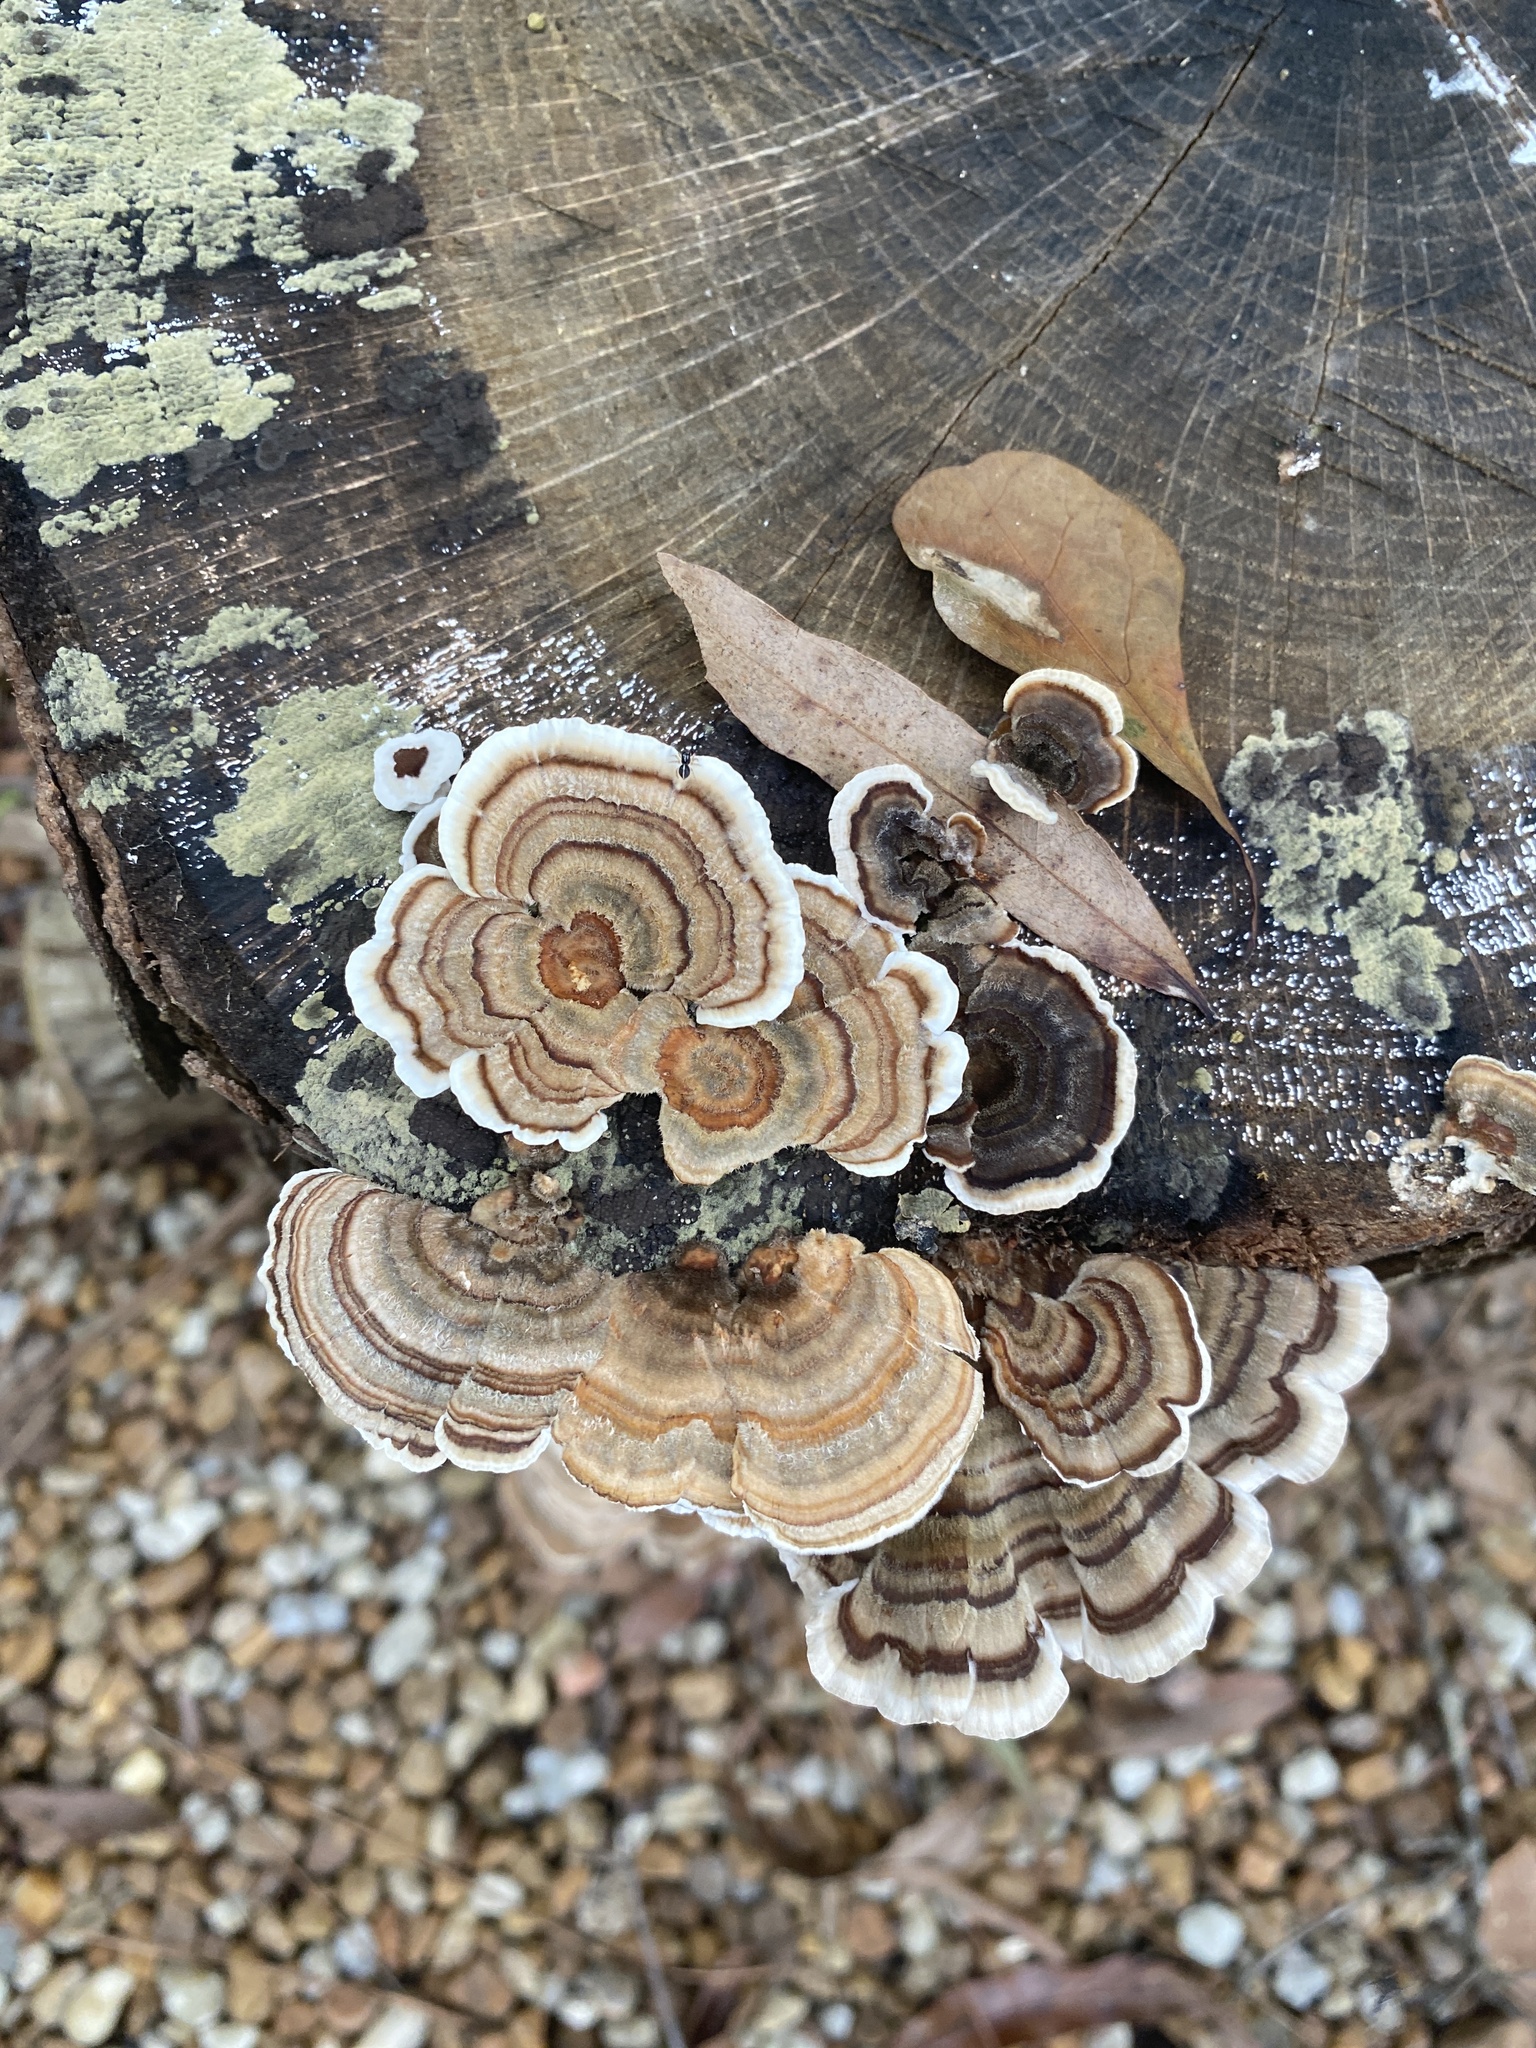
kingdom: Fungi
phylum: Basidiomycota
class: Agaricomycetes
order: Polyporales
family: Polyporaceae
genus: Trametes
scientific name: Trametes versicolor
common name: Turkeytail
